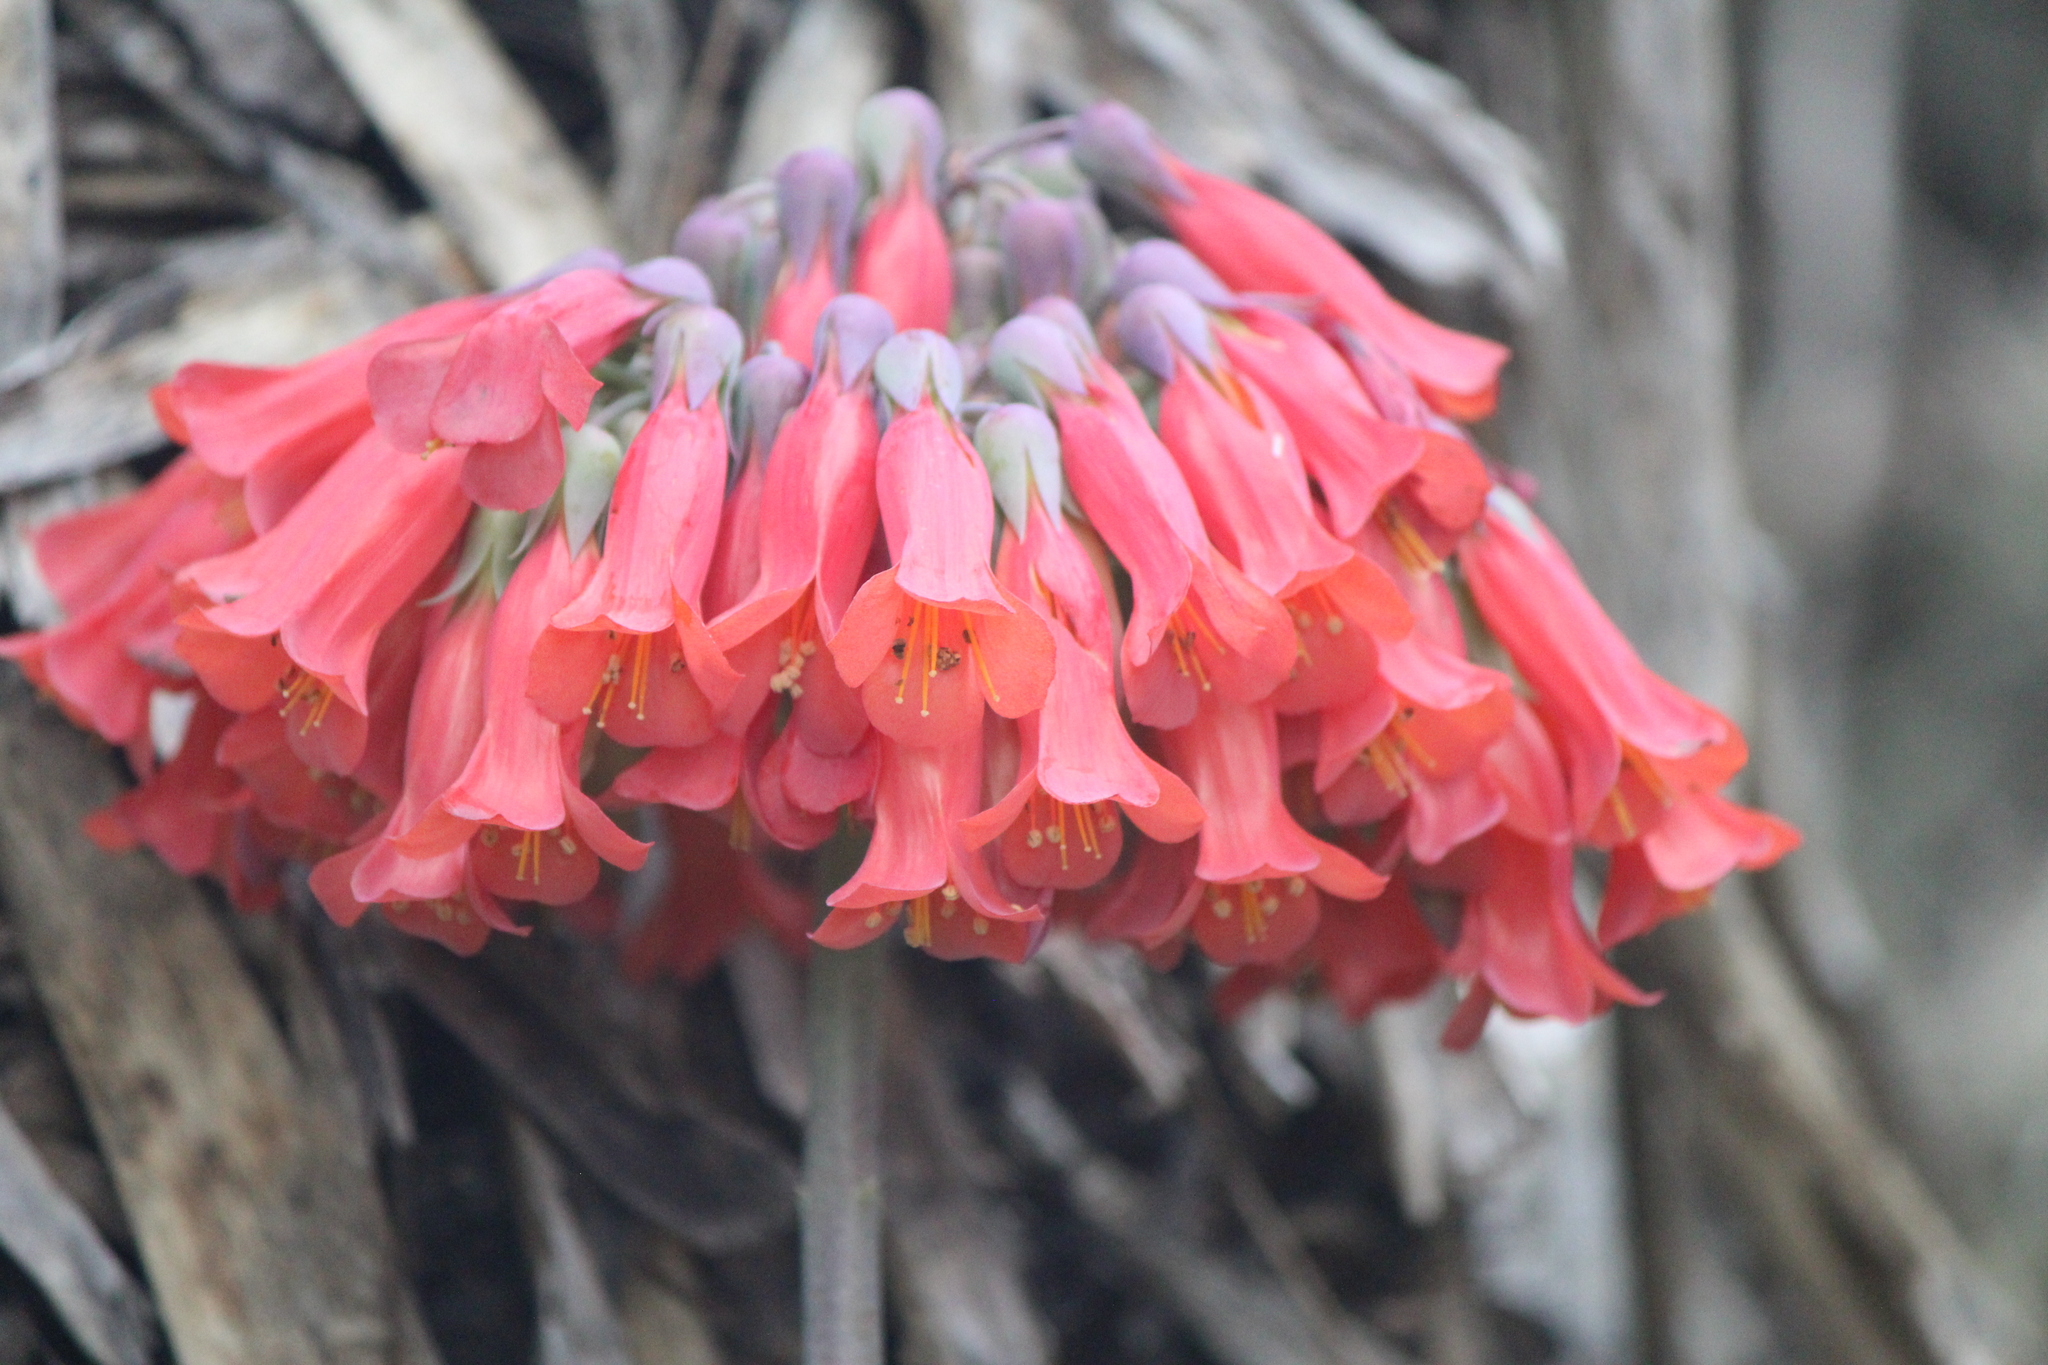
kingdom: Plantae
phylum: Tracheophyta
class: Magnoliopsida
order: Saxifragales
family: Crassulaceae
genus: Kalanchoe
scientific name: Kalanchoe delagoensis
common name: Chandelier plant
